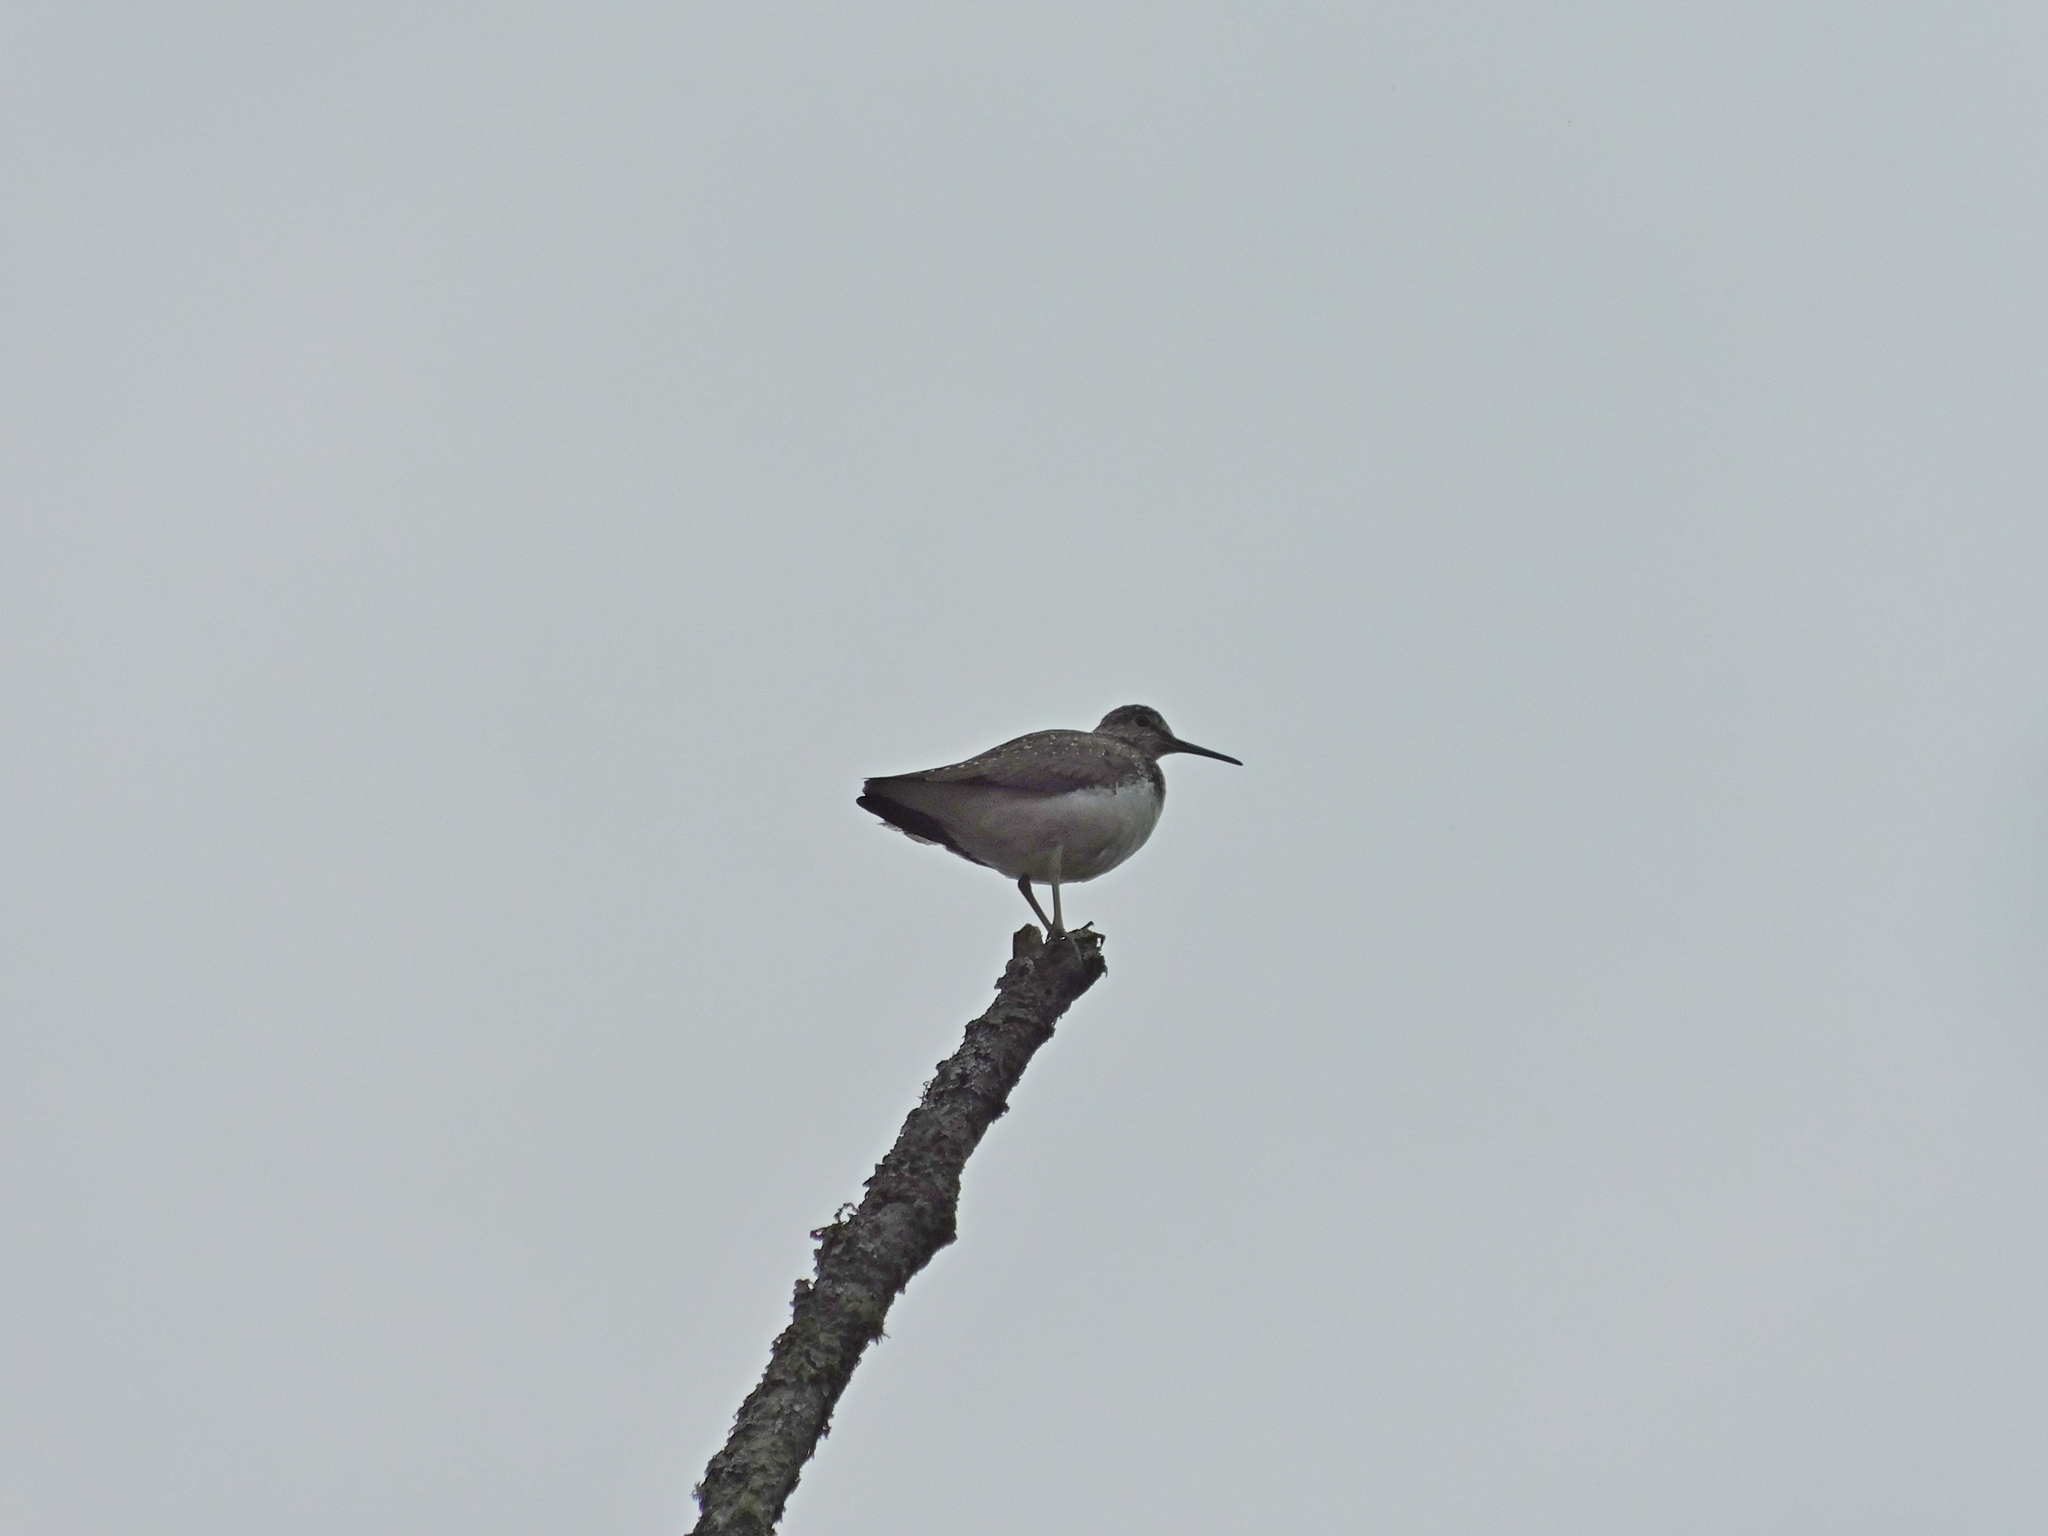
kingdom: Animalia
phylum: Chordata
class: Aves
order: Charadriiformes
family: Scolopacidae
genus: Tringa
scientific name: Tringa ochropus
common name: Green sandpiper
